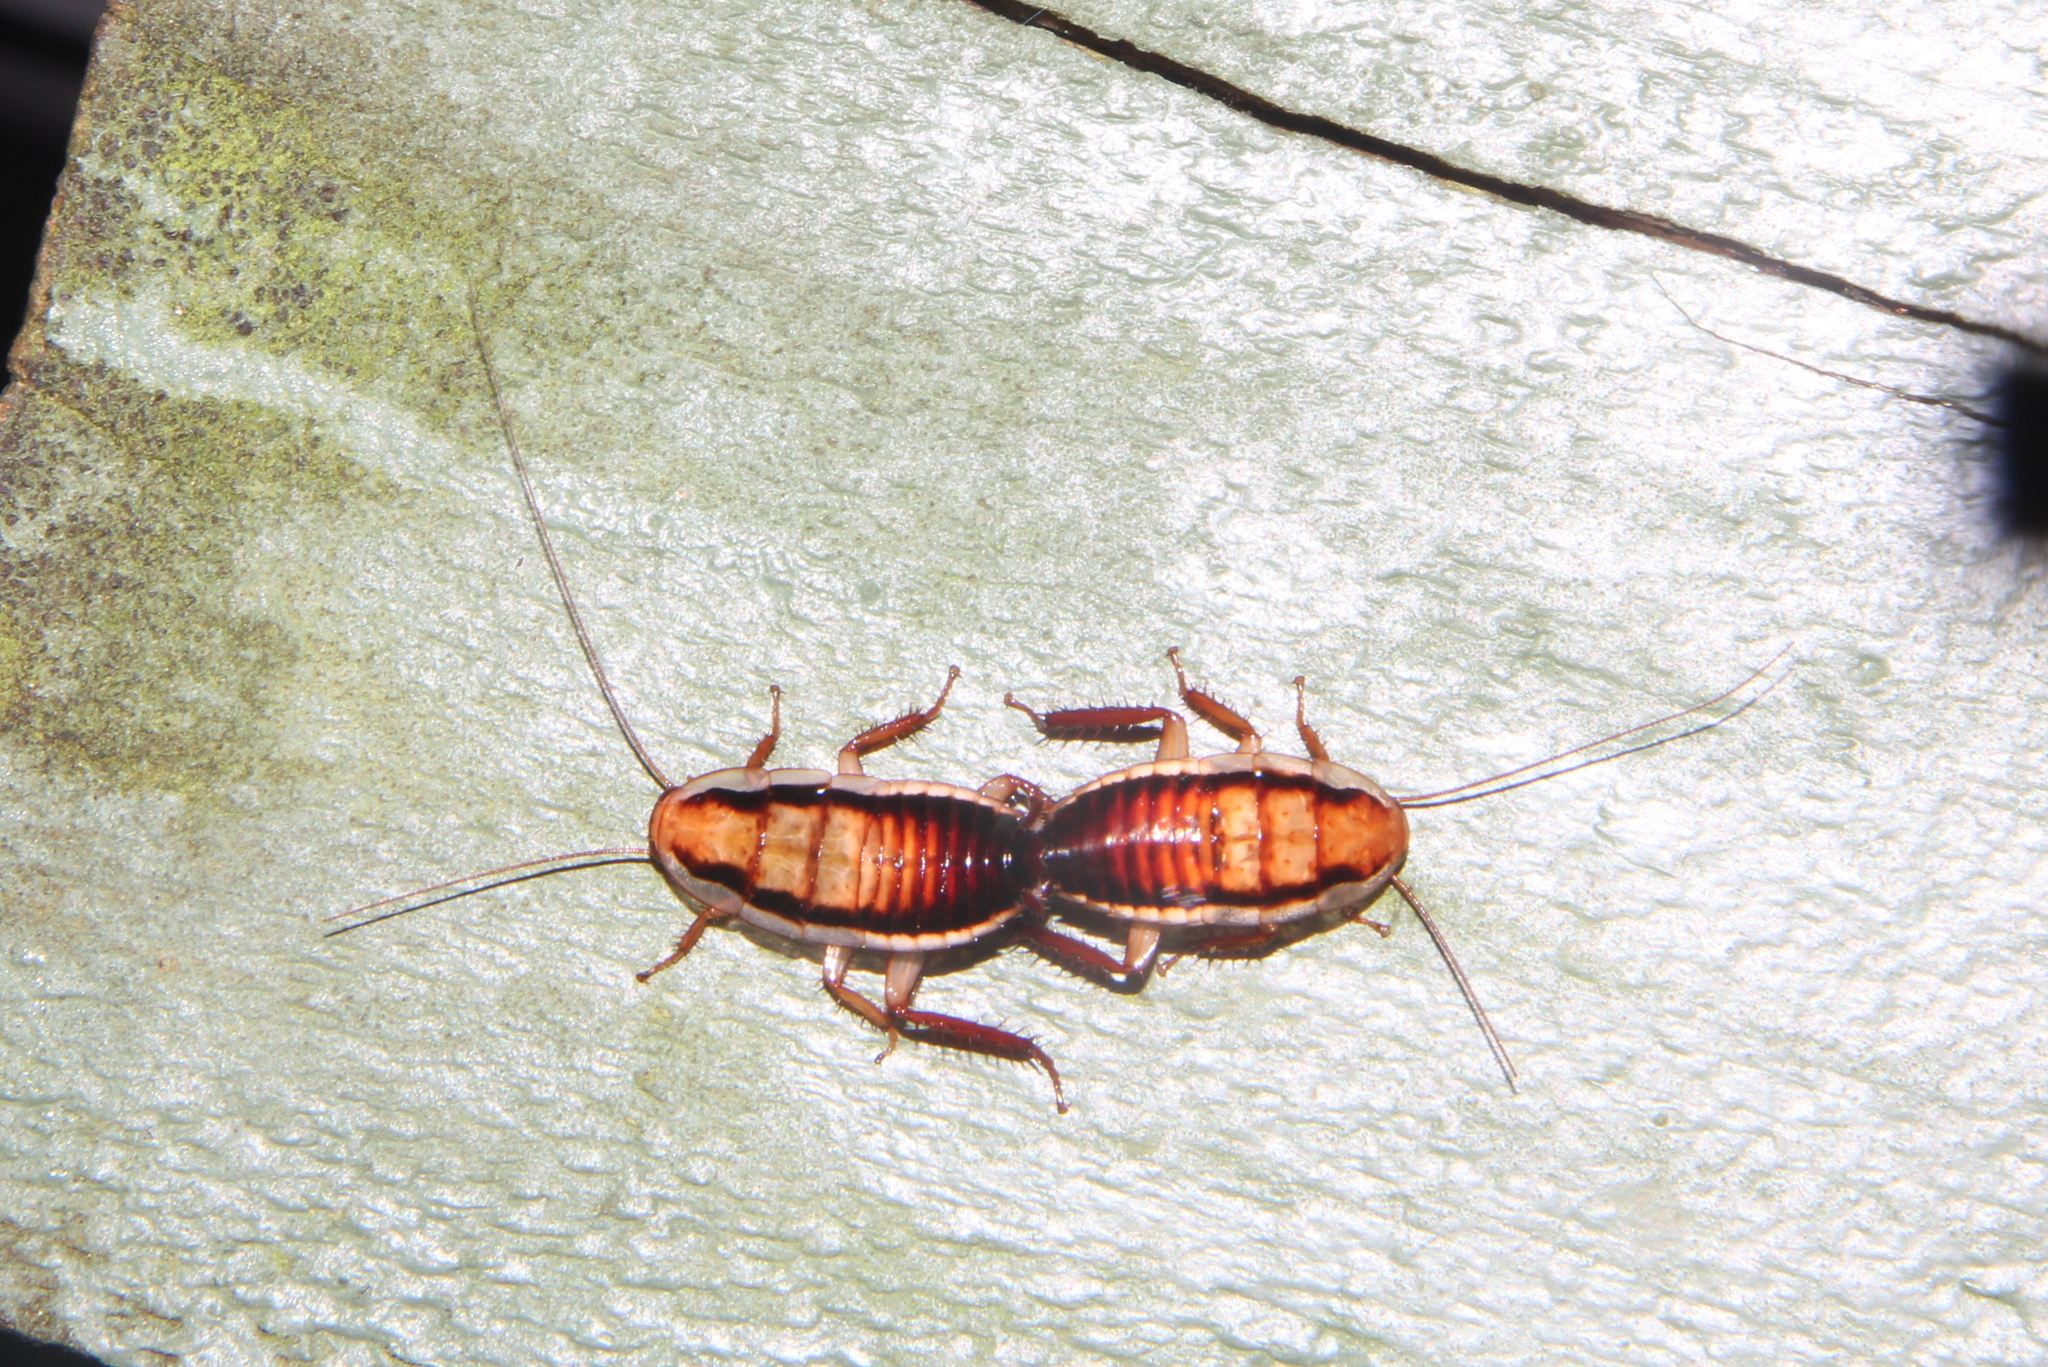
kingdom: Animalia
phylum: Arthropoda
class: Insecta
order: Blattodea
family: Blattidae
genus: Drymaplaneta
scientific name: Drymaplaneta semivitta
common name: Gisborne cockroach
